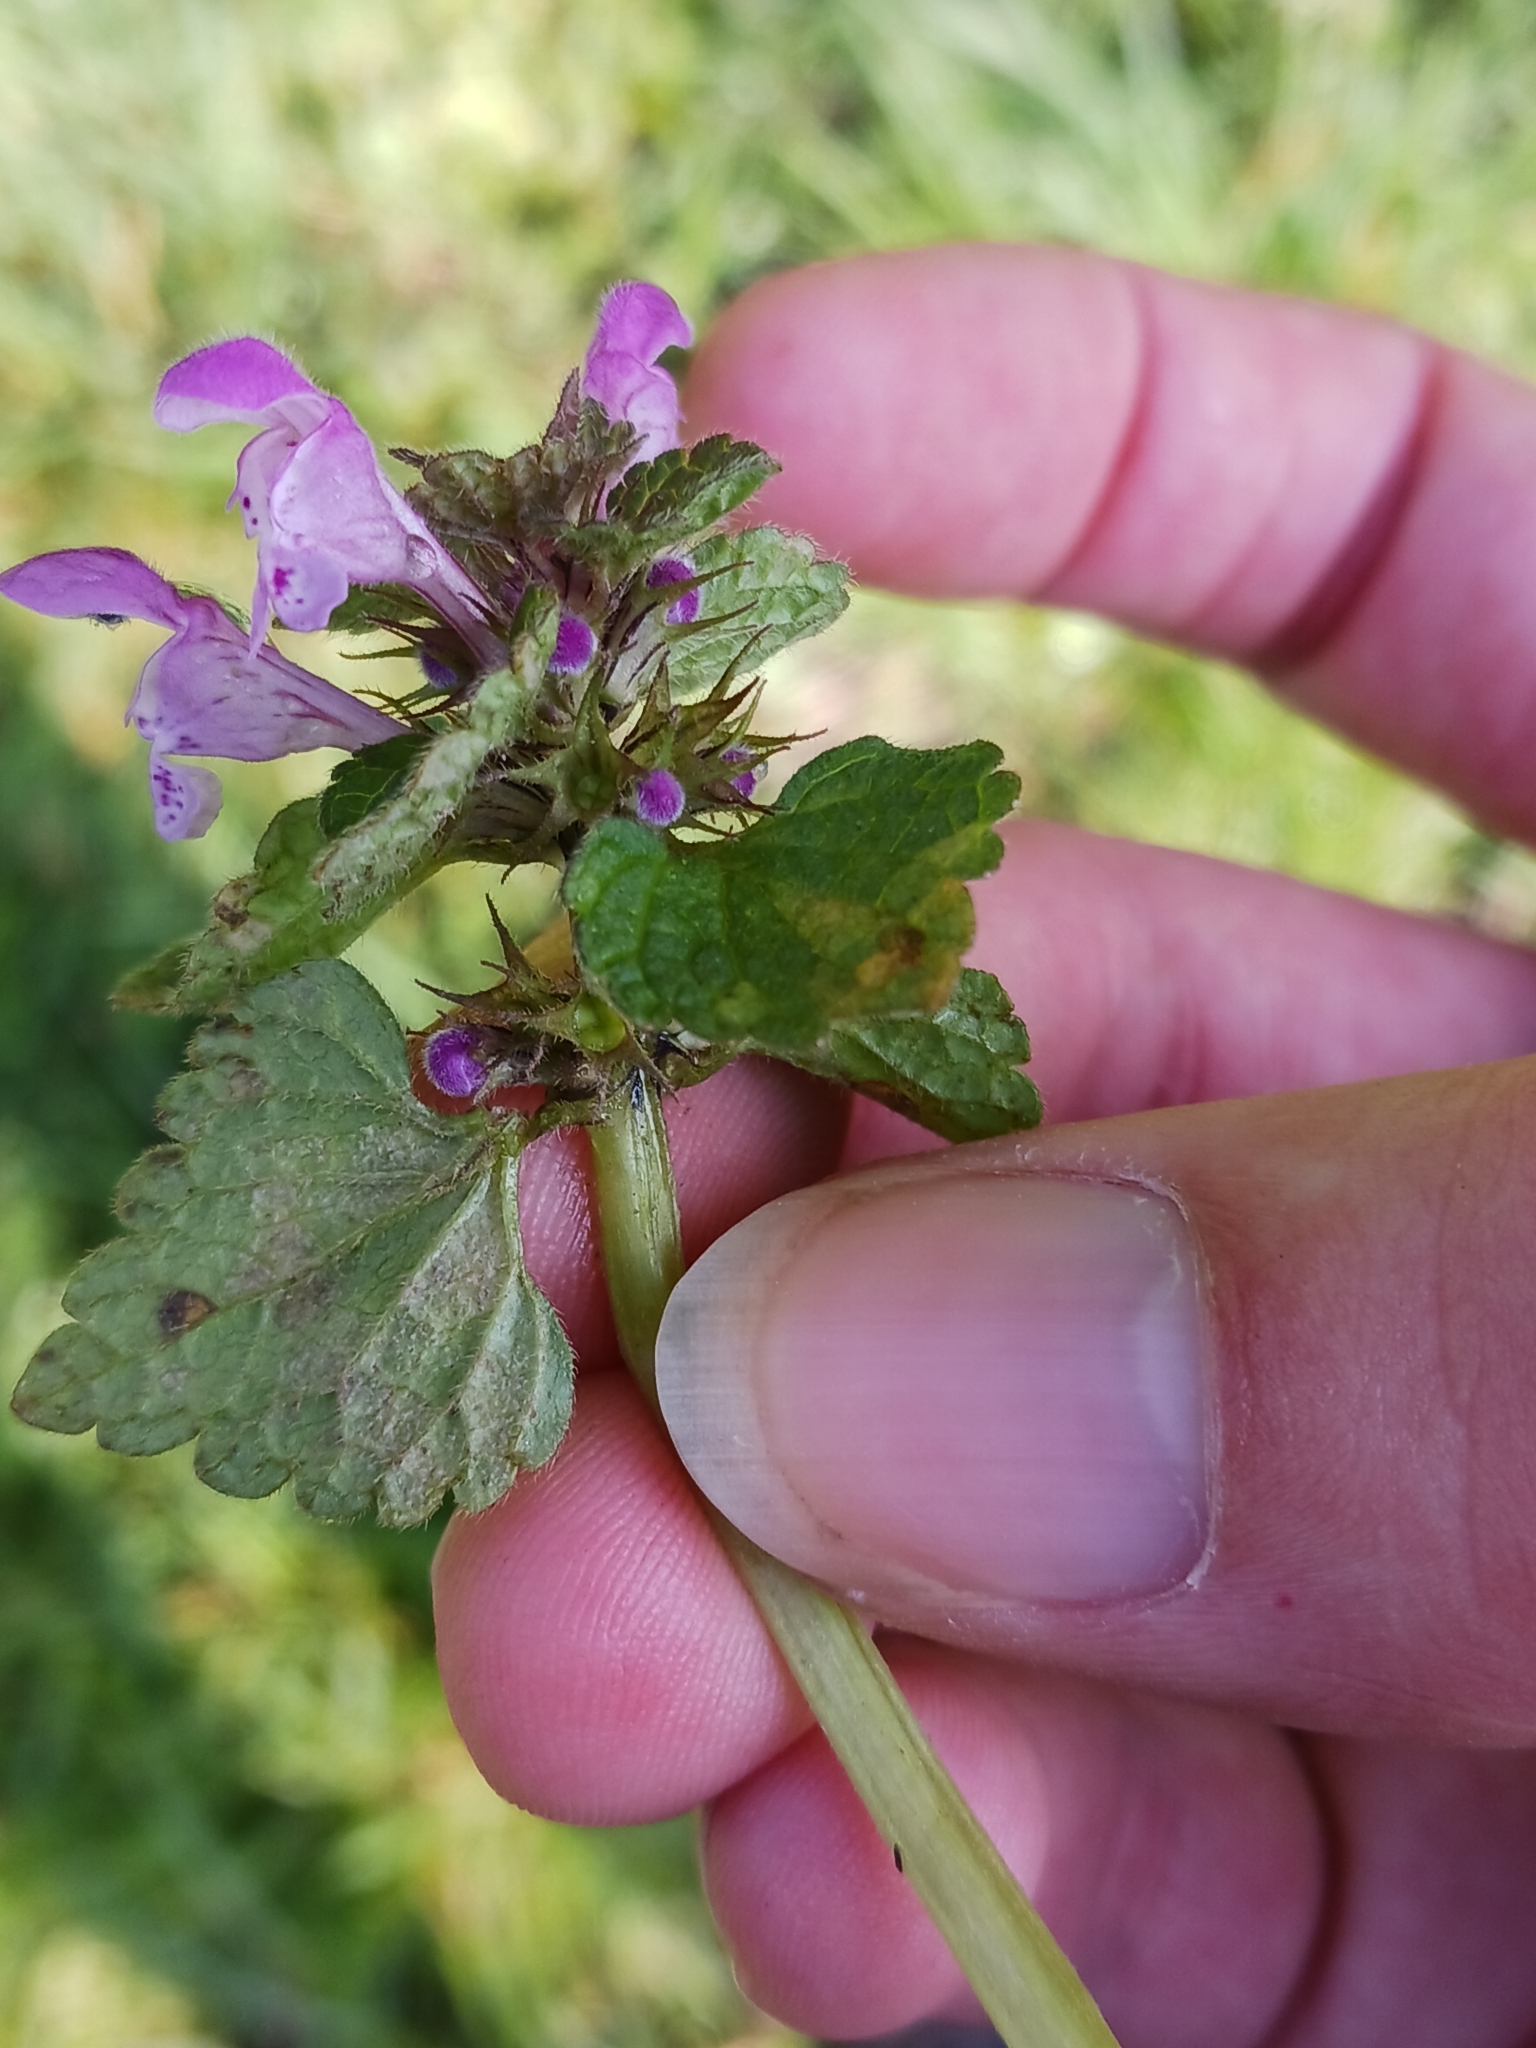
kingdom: Chromista
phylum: Oomycota
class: Peronosporea
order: Peronosporales
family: Peronosporaceae
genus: Peronospora
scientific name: Peronospora lamii
